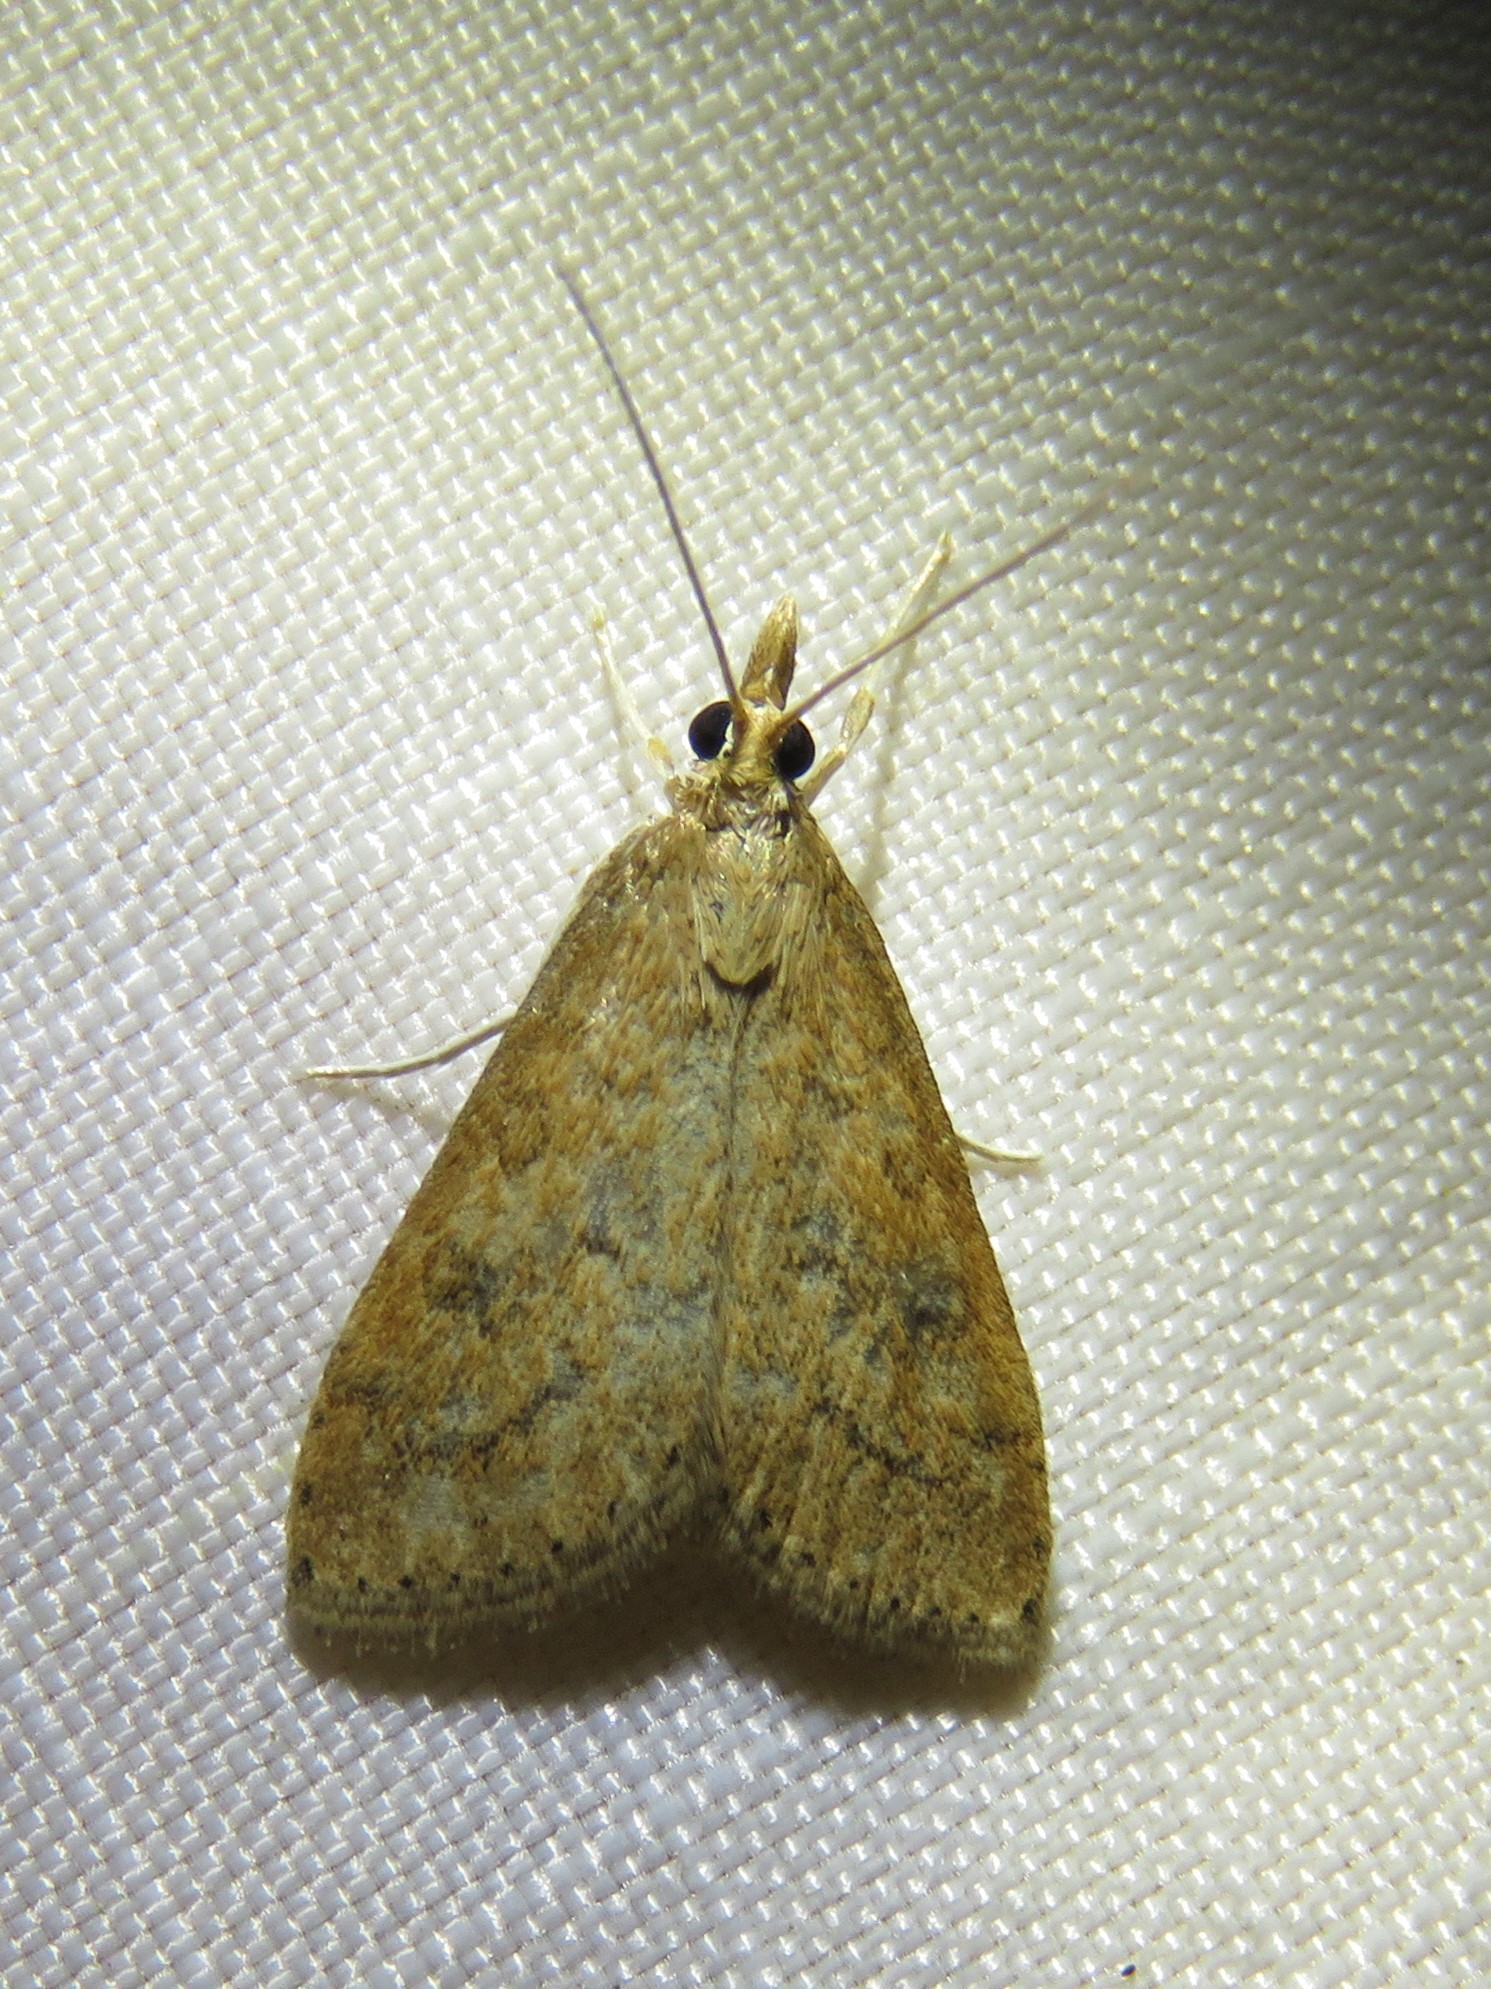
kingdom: Animalia
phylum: Arthropoda
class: Insecta
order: Lepidoptera
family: Crambidae
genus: Udea
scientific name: Udea rubigalis
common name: Celery leaftier moth
